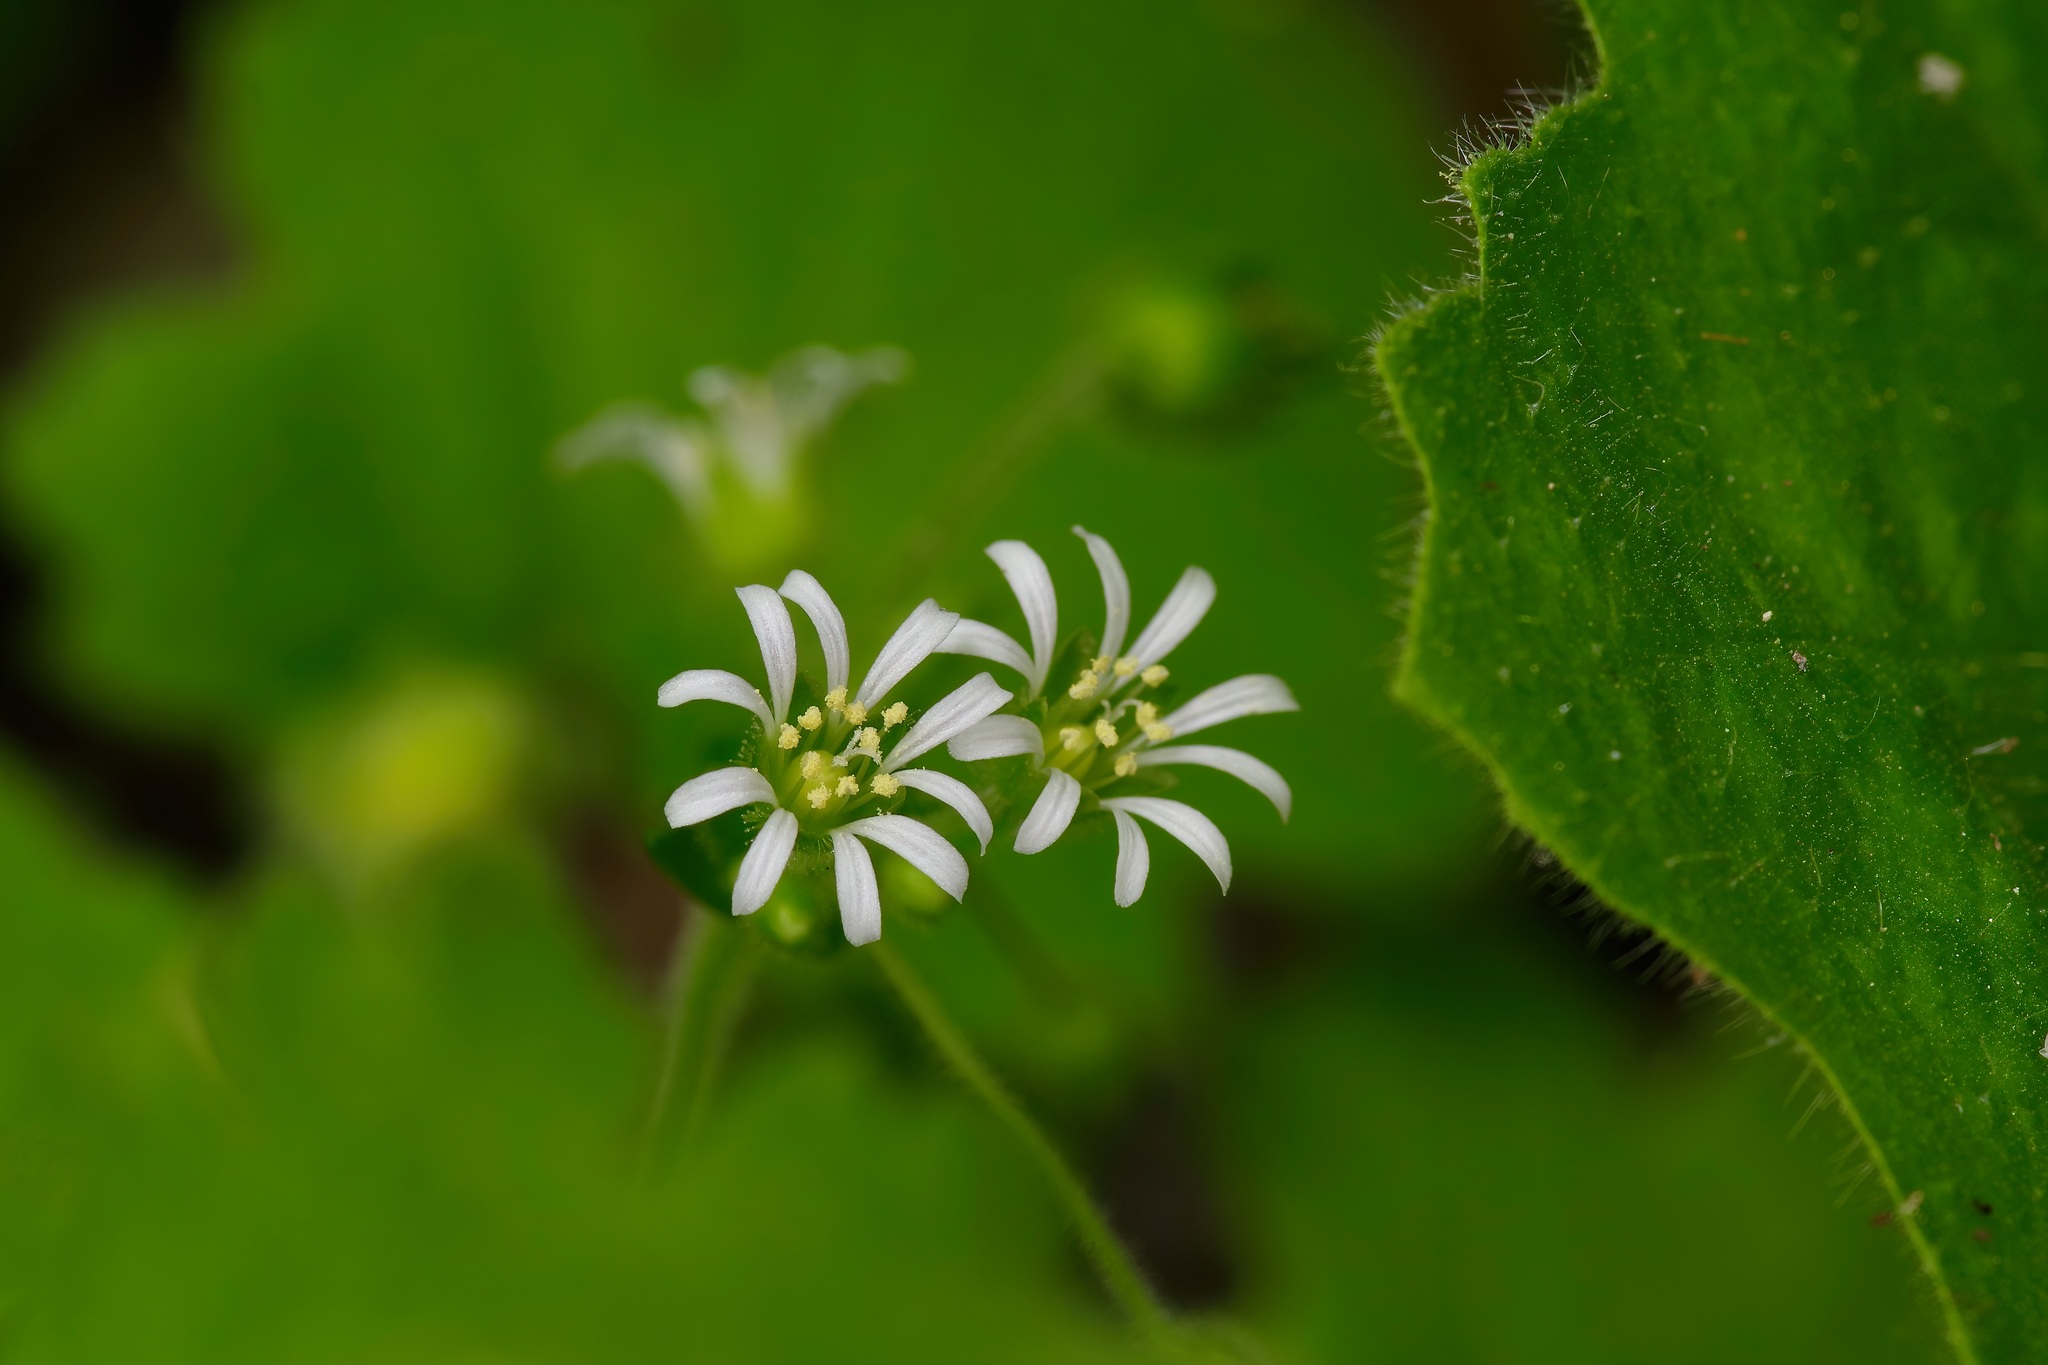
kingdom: Plantae
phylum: Tracheophyta
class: Magnoliopsida
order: Caryophyllales
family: Caryophyllaceae
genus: Stellaria
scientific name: Stellaria cuspidata
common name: Mexican chickweed
